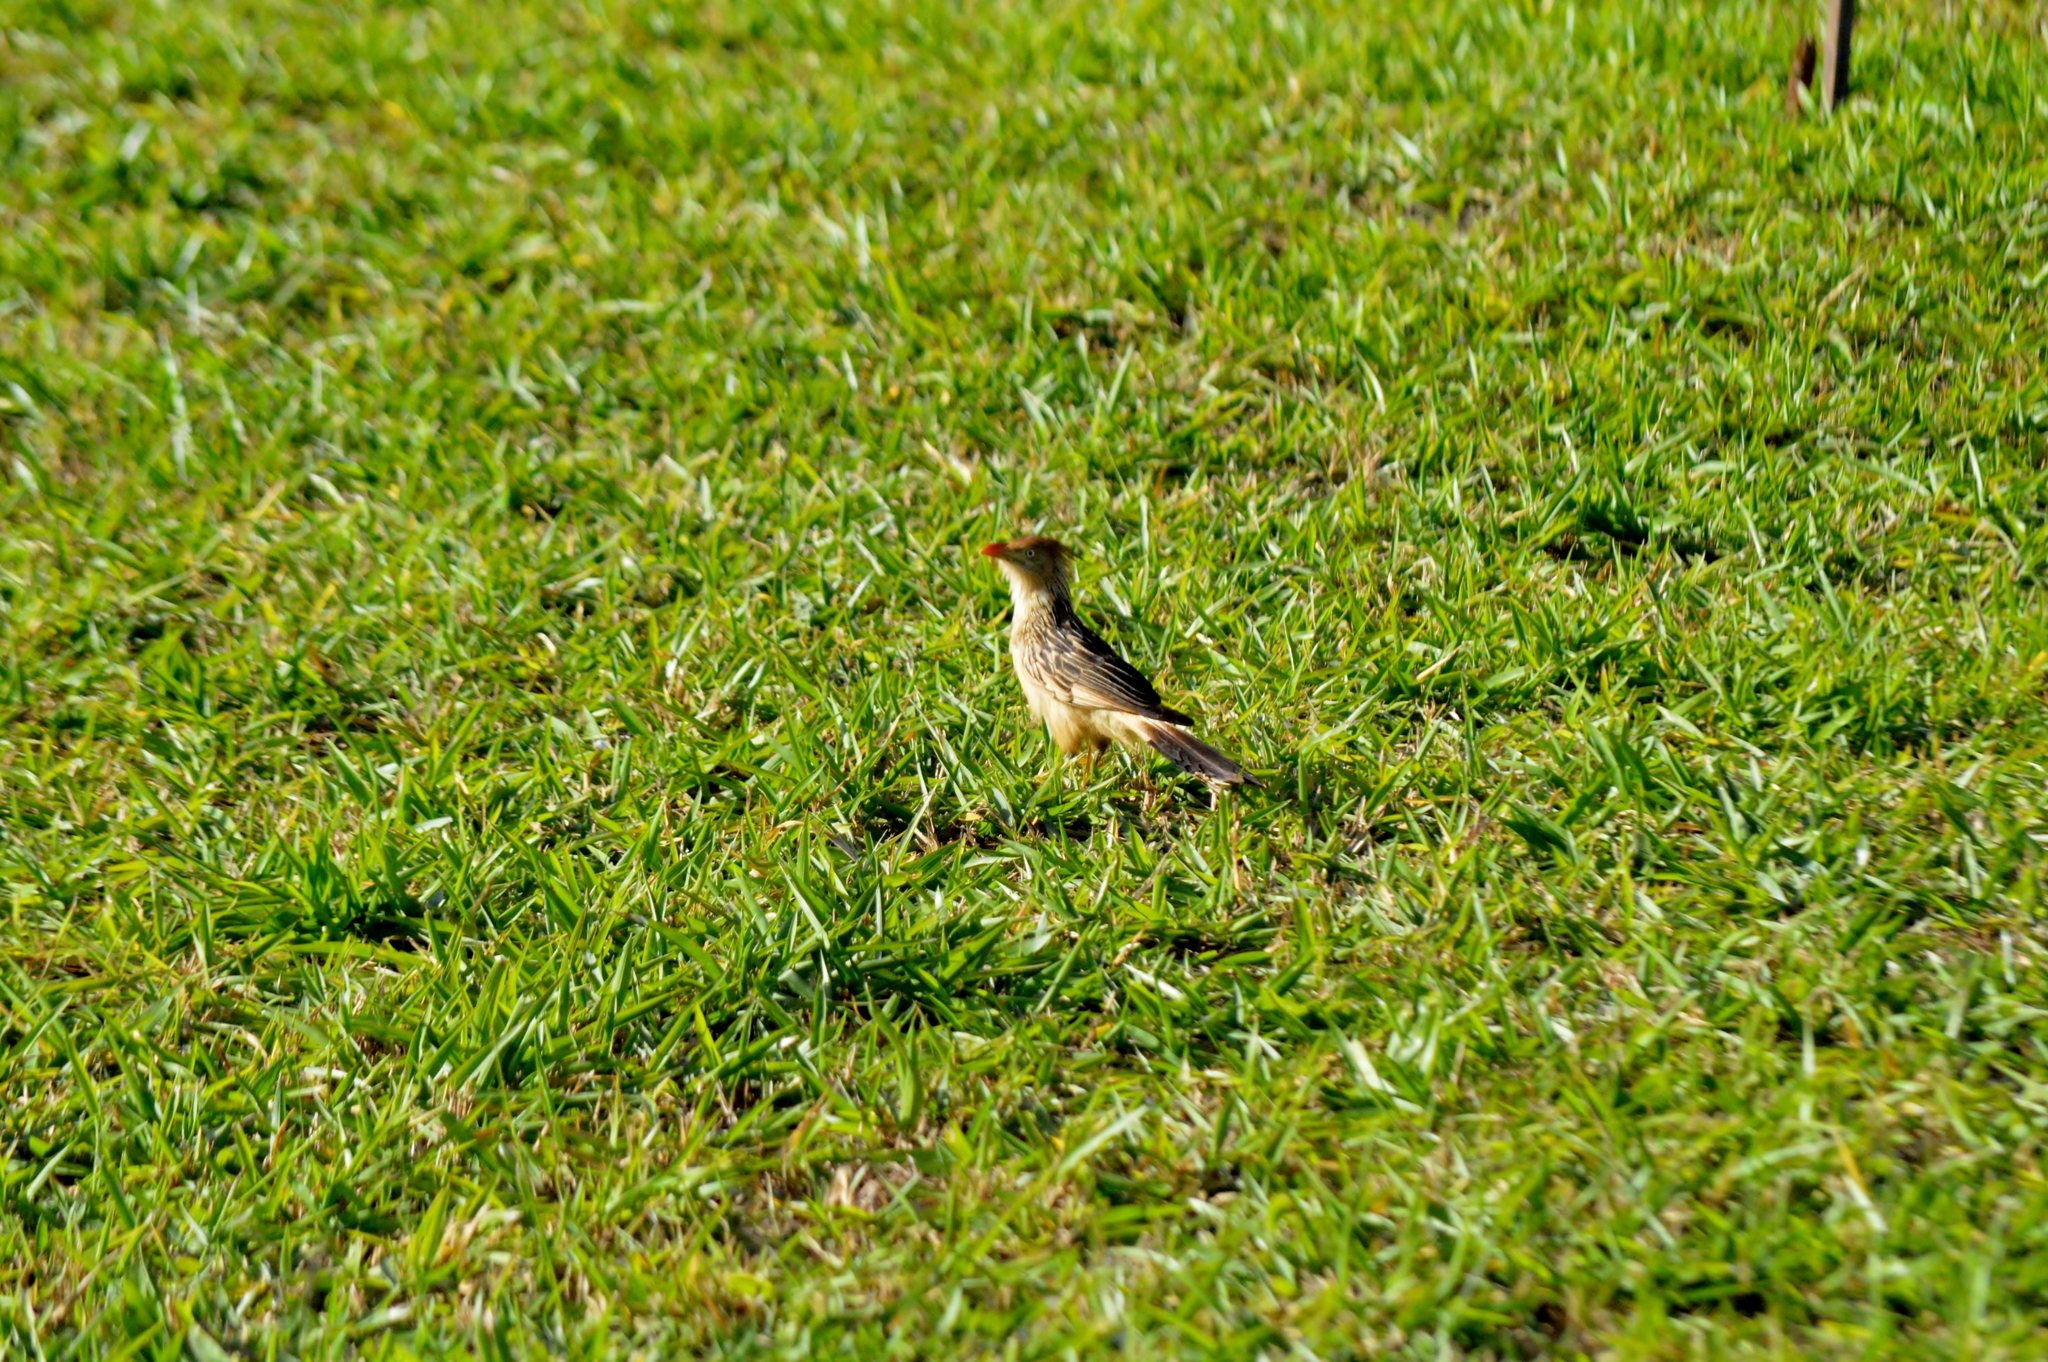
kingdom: Animalia
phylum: Chordata
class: Aves
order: Cuculiformes
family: Cuculidae
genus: Guira
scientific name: Guira guira
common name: Guira cuckoo
